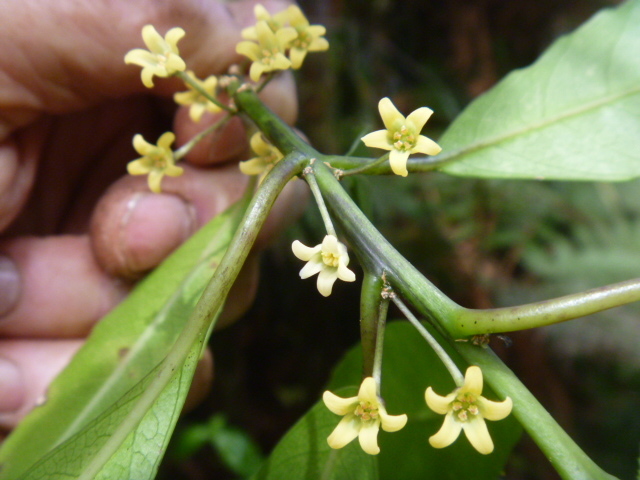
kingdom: Plantae
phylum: Tracheophyta
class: Magnoliopsida
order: Malpighiales
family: Violaceae
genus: Melicytus
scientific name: Melicytus macrophyllus
